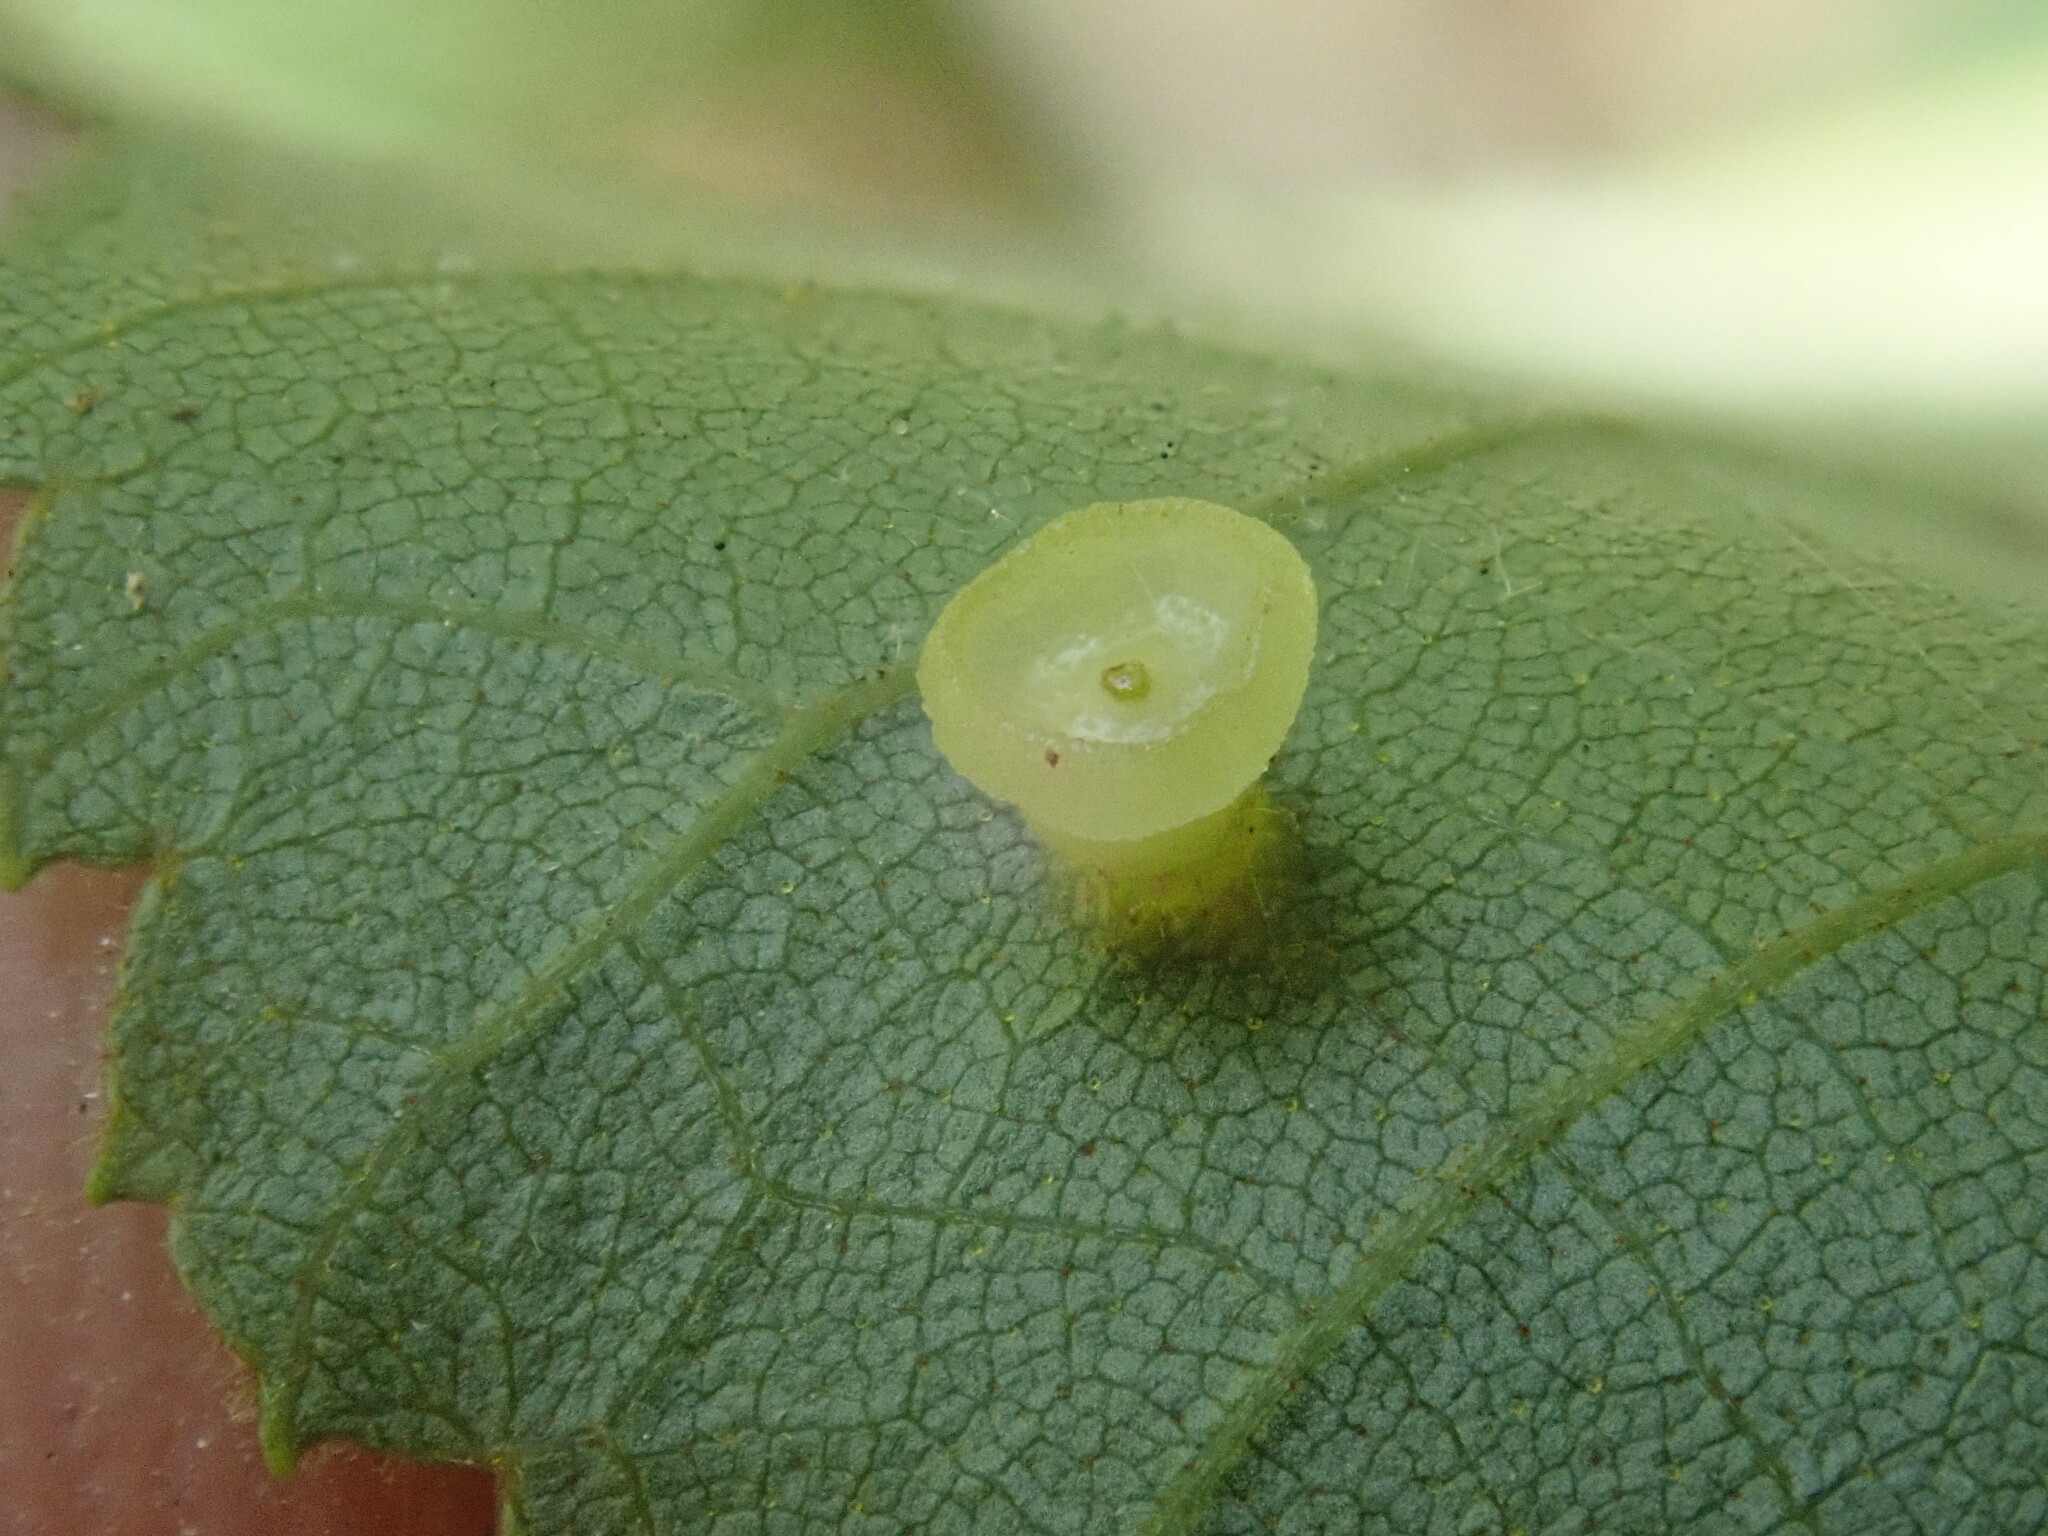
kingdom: Animalia
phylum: Arthropoda
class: Insecta
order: Diptera
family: Cecidomyiidae
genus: Caryomyia
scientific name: Caryomyia flaticrustum
